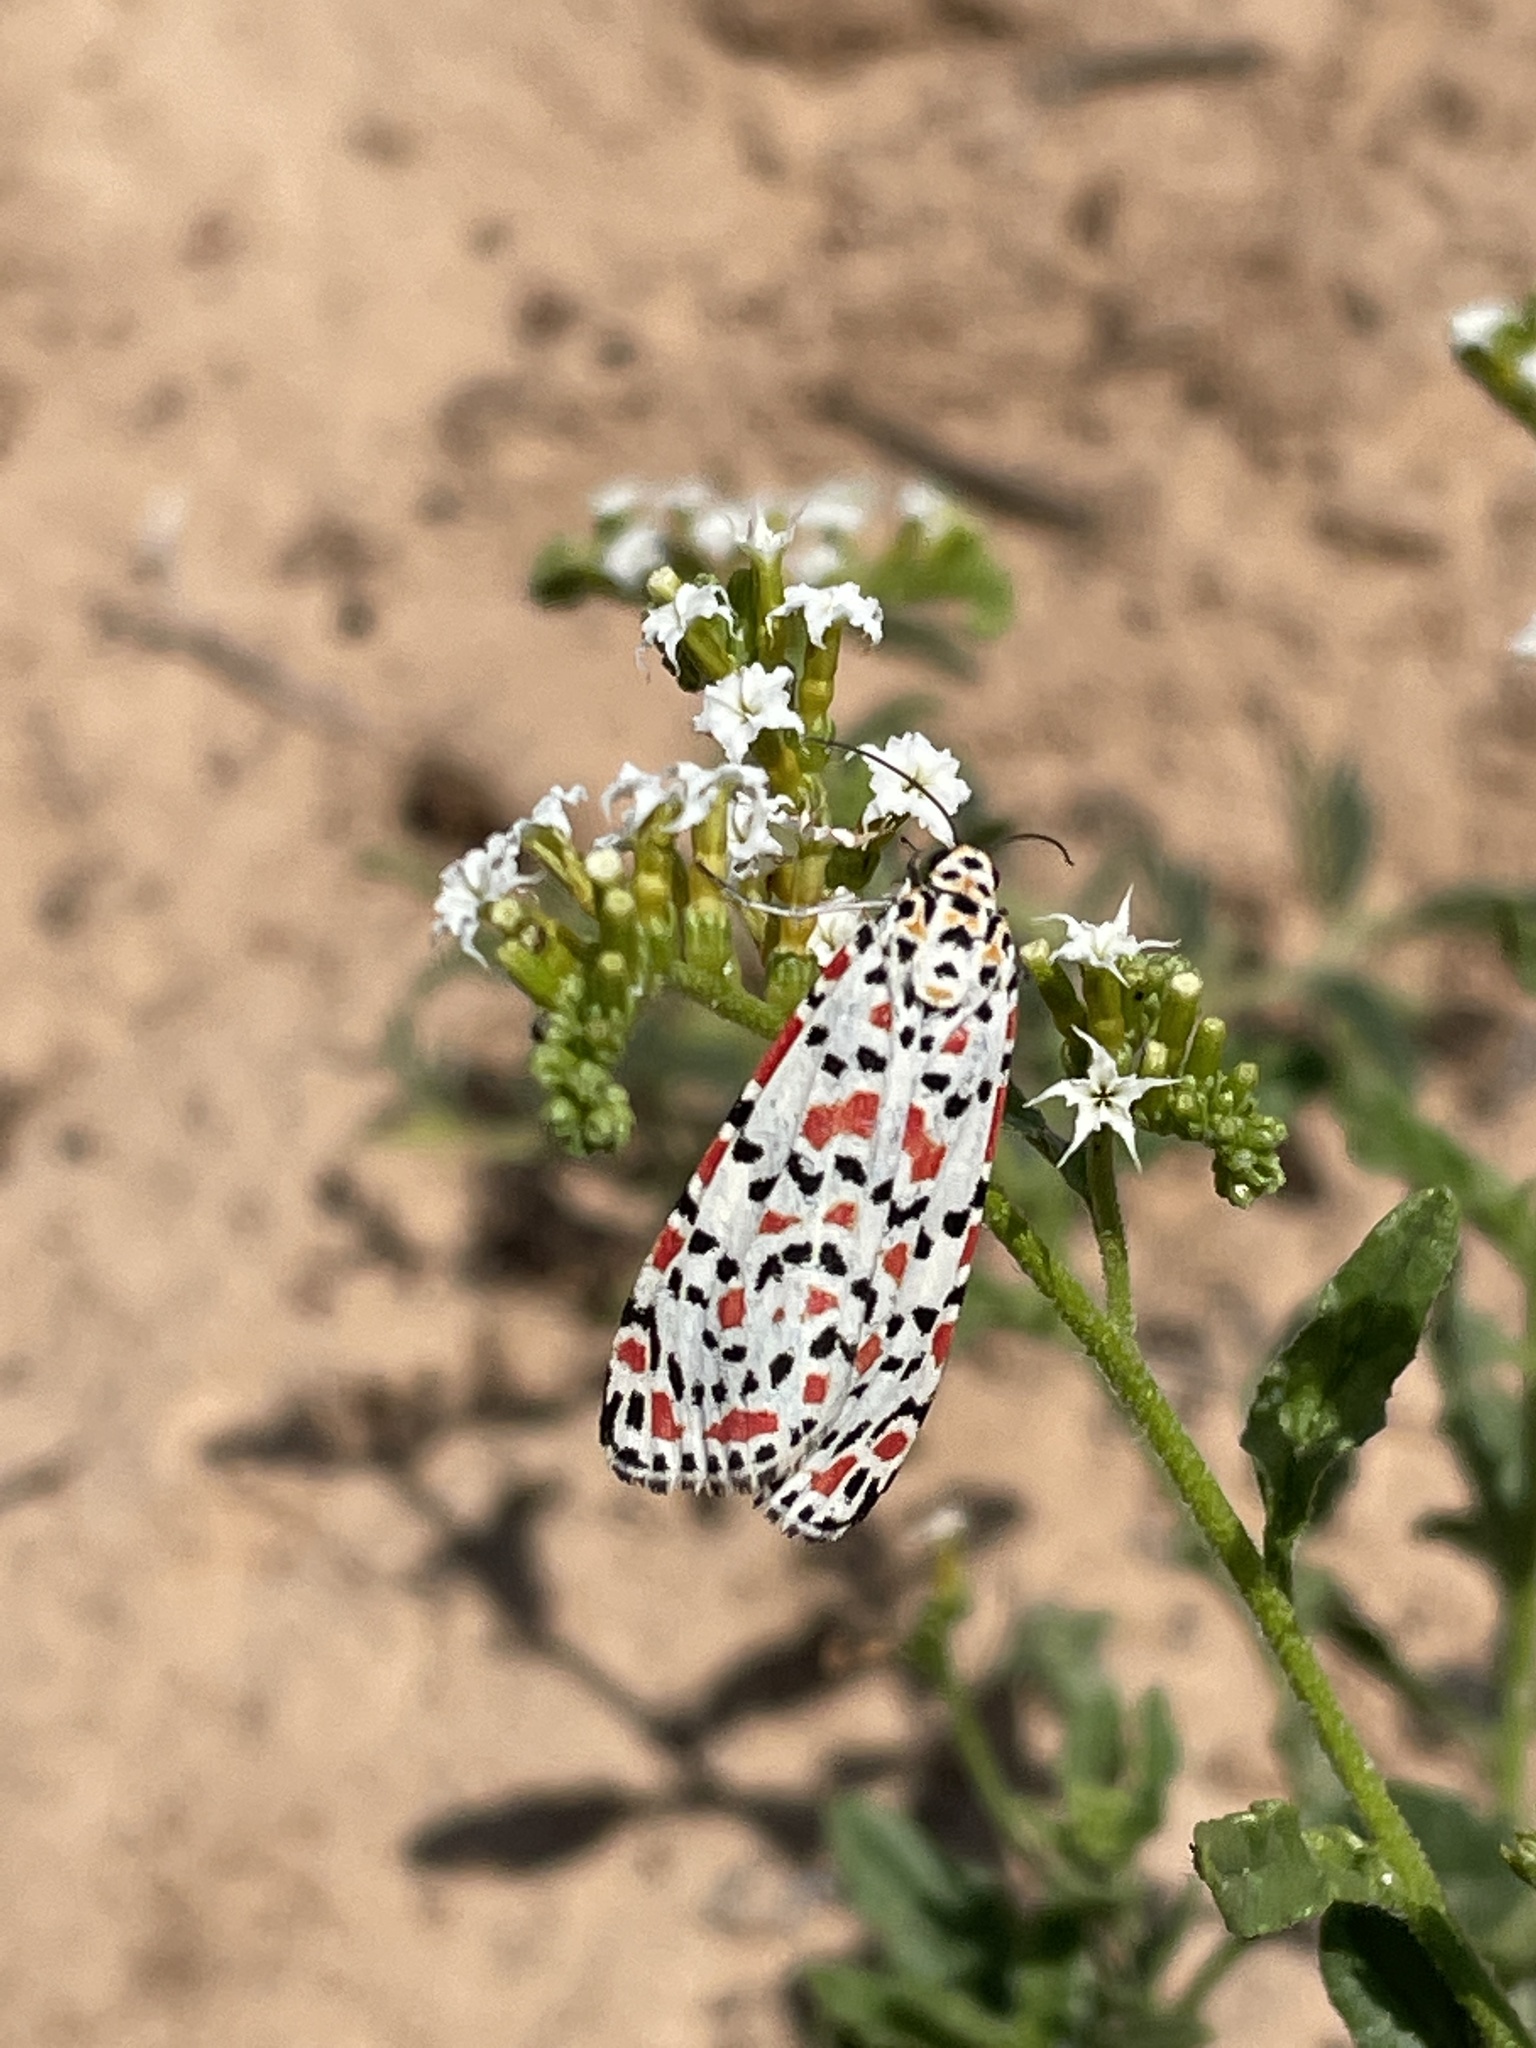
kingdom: Animalia
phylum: Arthropoda
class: Insecta
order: Lepidoptera
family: Erebidae
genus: Utetheisa
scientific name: Utetheisa pulchella
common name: Crimson speckled
